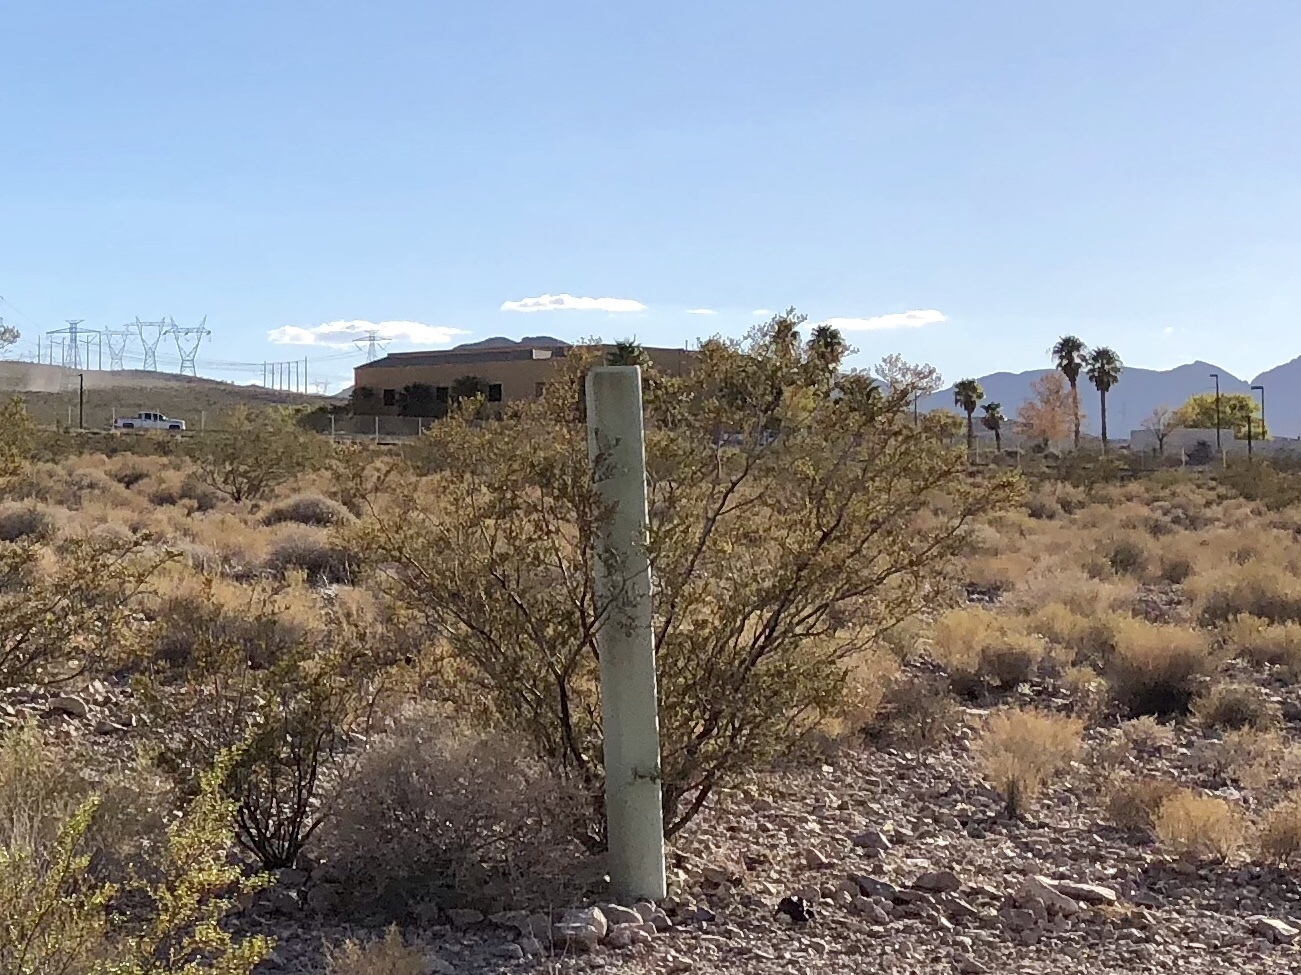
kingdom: Plantae
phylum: Tracheophyta
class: Magnoliopsida
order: Zygophyllales
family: Zygophyllaceae
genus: Larrea
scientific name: Larrea tridentata
